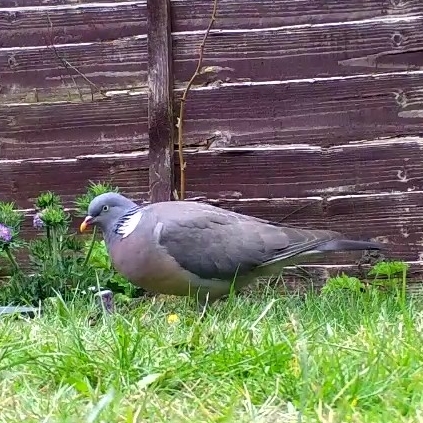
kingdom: Animalia
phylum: Chordata
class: Aves
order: Columbiformes
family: Columbidae
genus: Columba
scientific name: Columba palumbus
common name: Common wood pigeon
